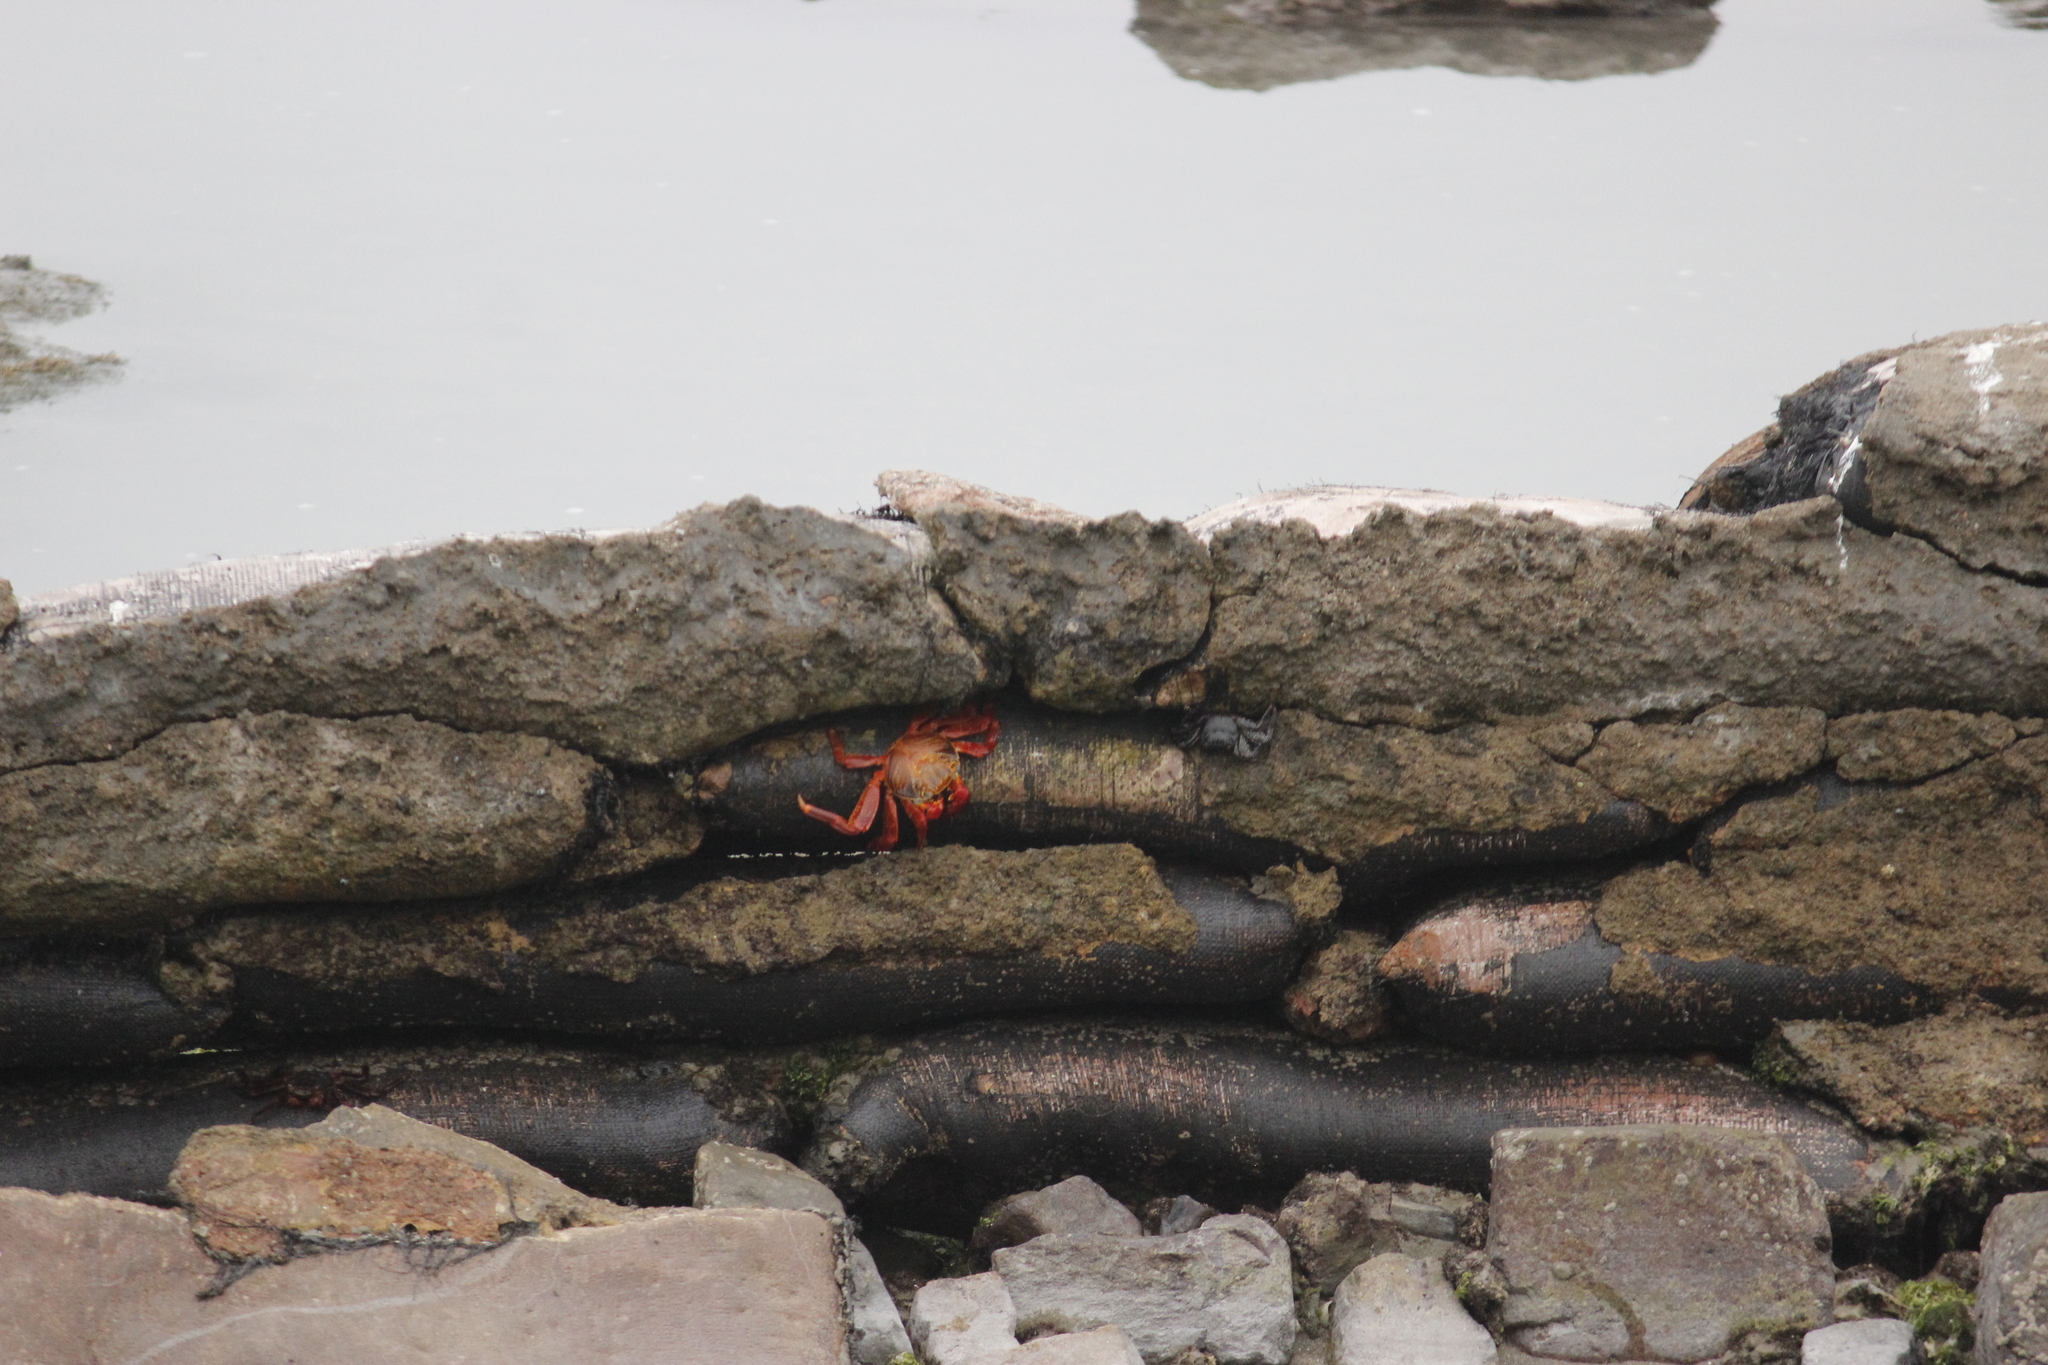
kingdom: Animalia
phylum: Arthropoda
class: Malacostraca
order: Decapoda
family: Grapsidae
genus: Grapsus
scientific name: Grapsus grapsus
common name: Sally lightfoot
